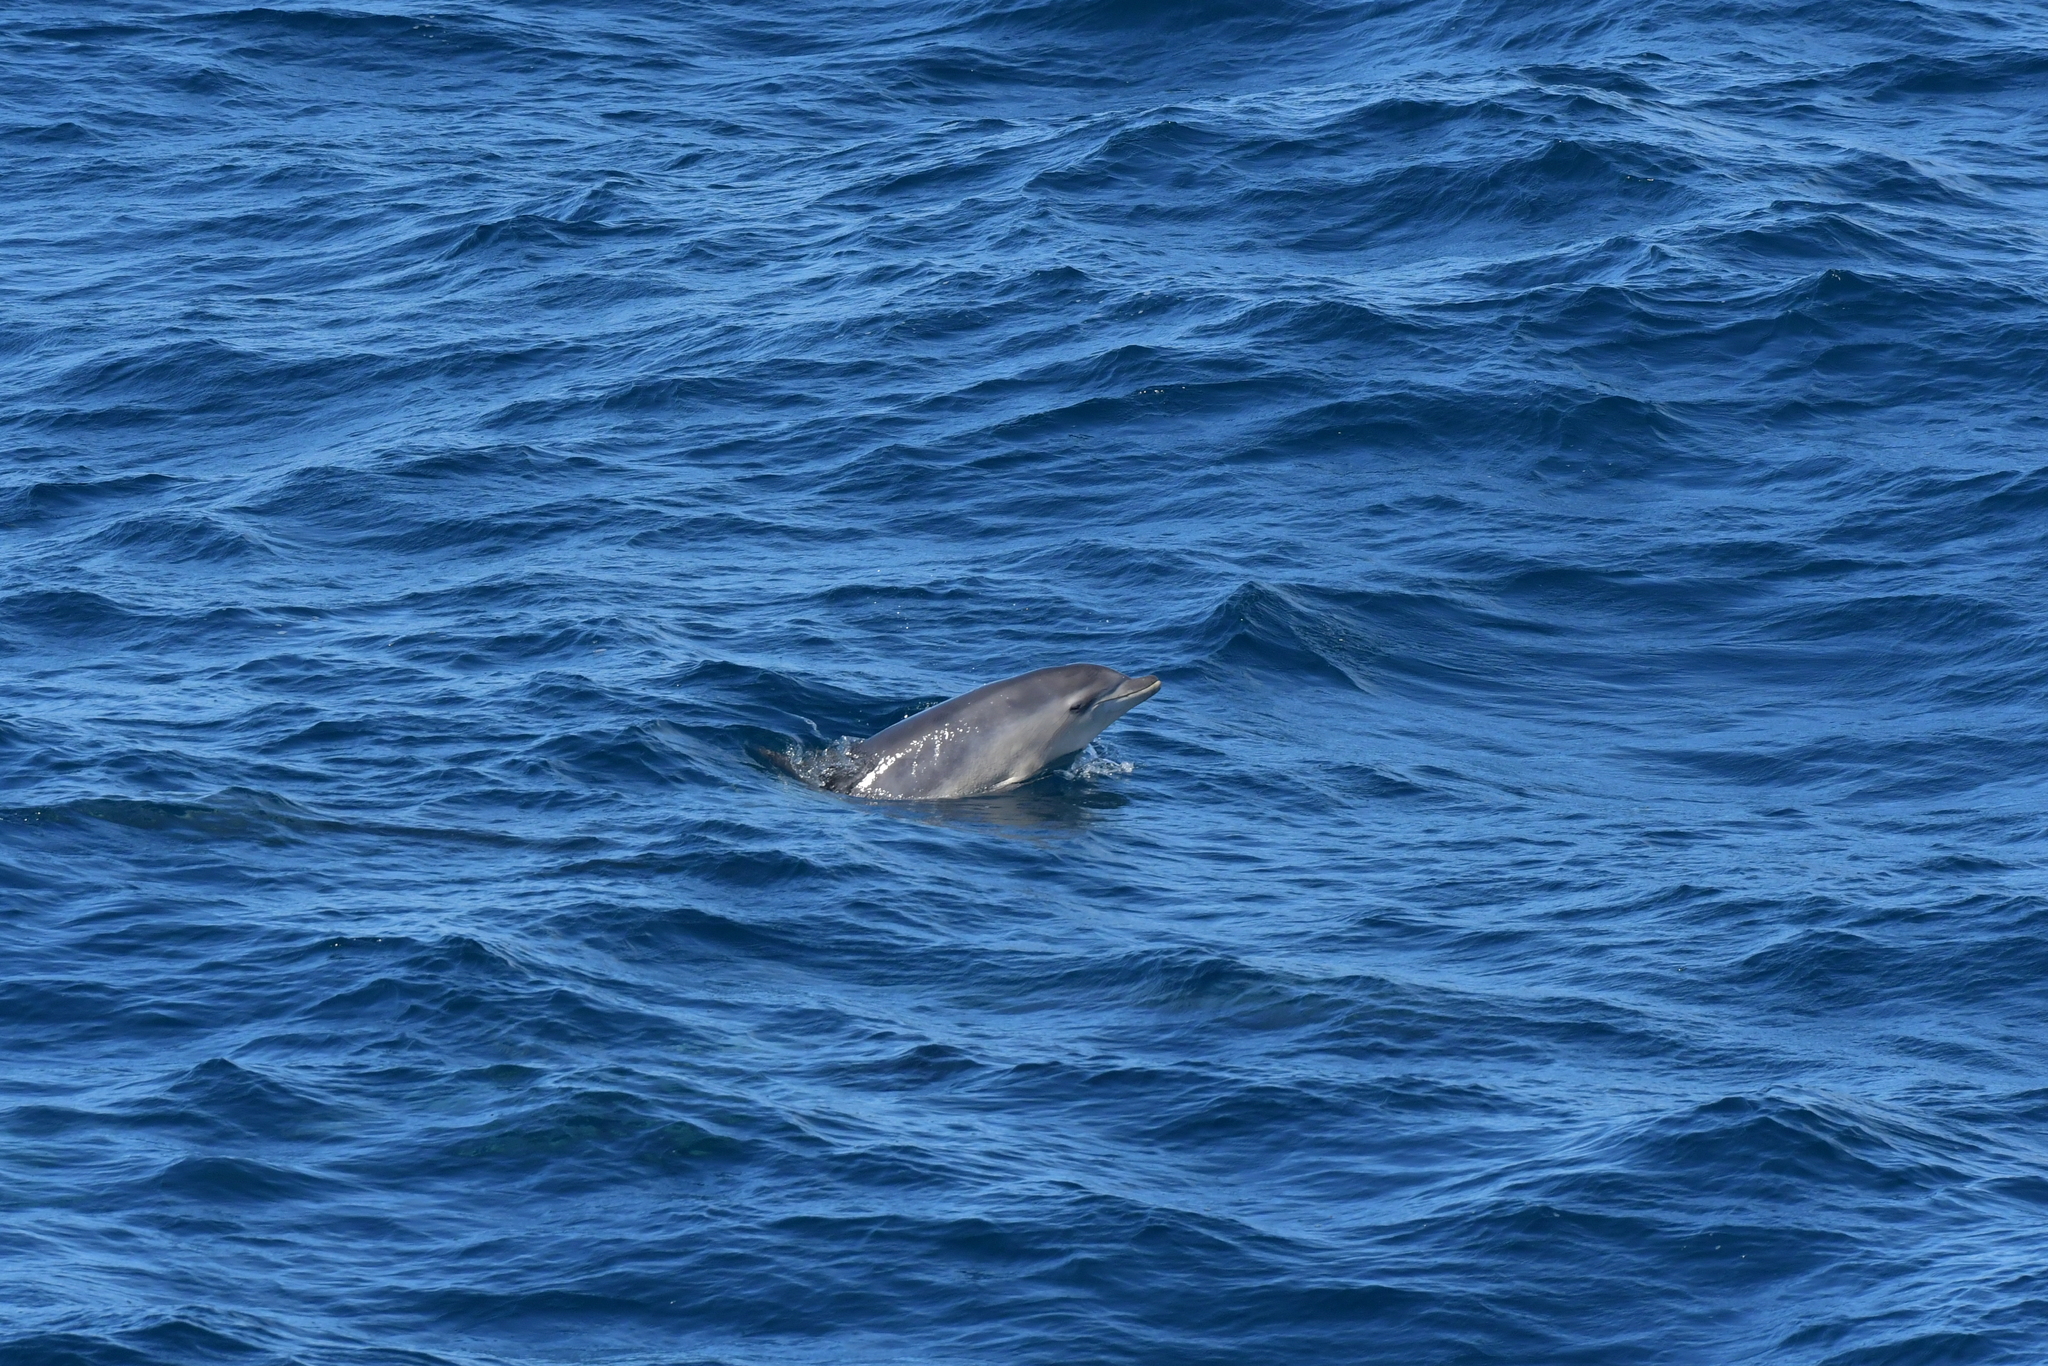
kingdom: Animalia
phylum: Chordata
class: Mammalia
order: Cetacea
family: Delphinidae
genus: Tursiops
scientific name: Tursiops truncatus
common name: Bottlenose dolphin
